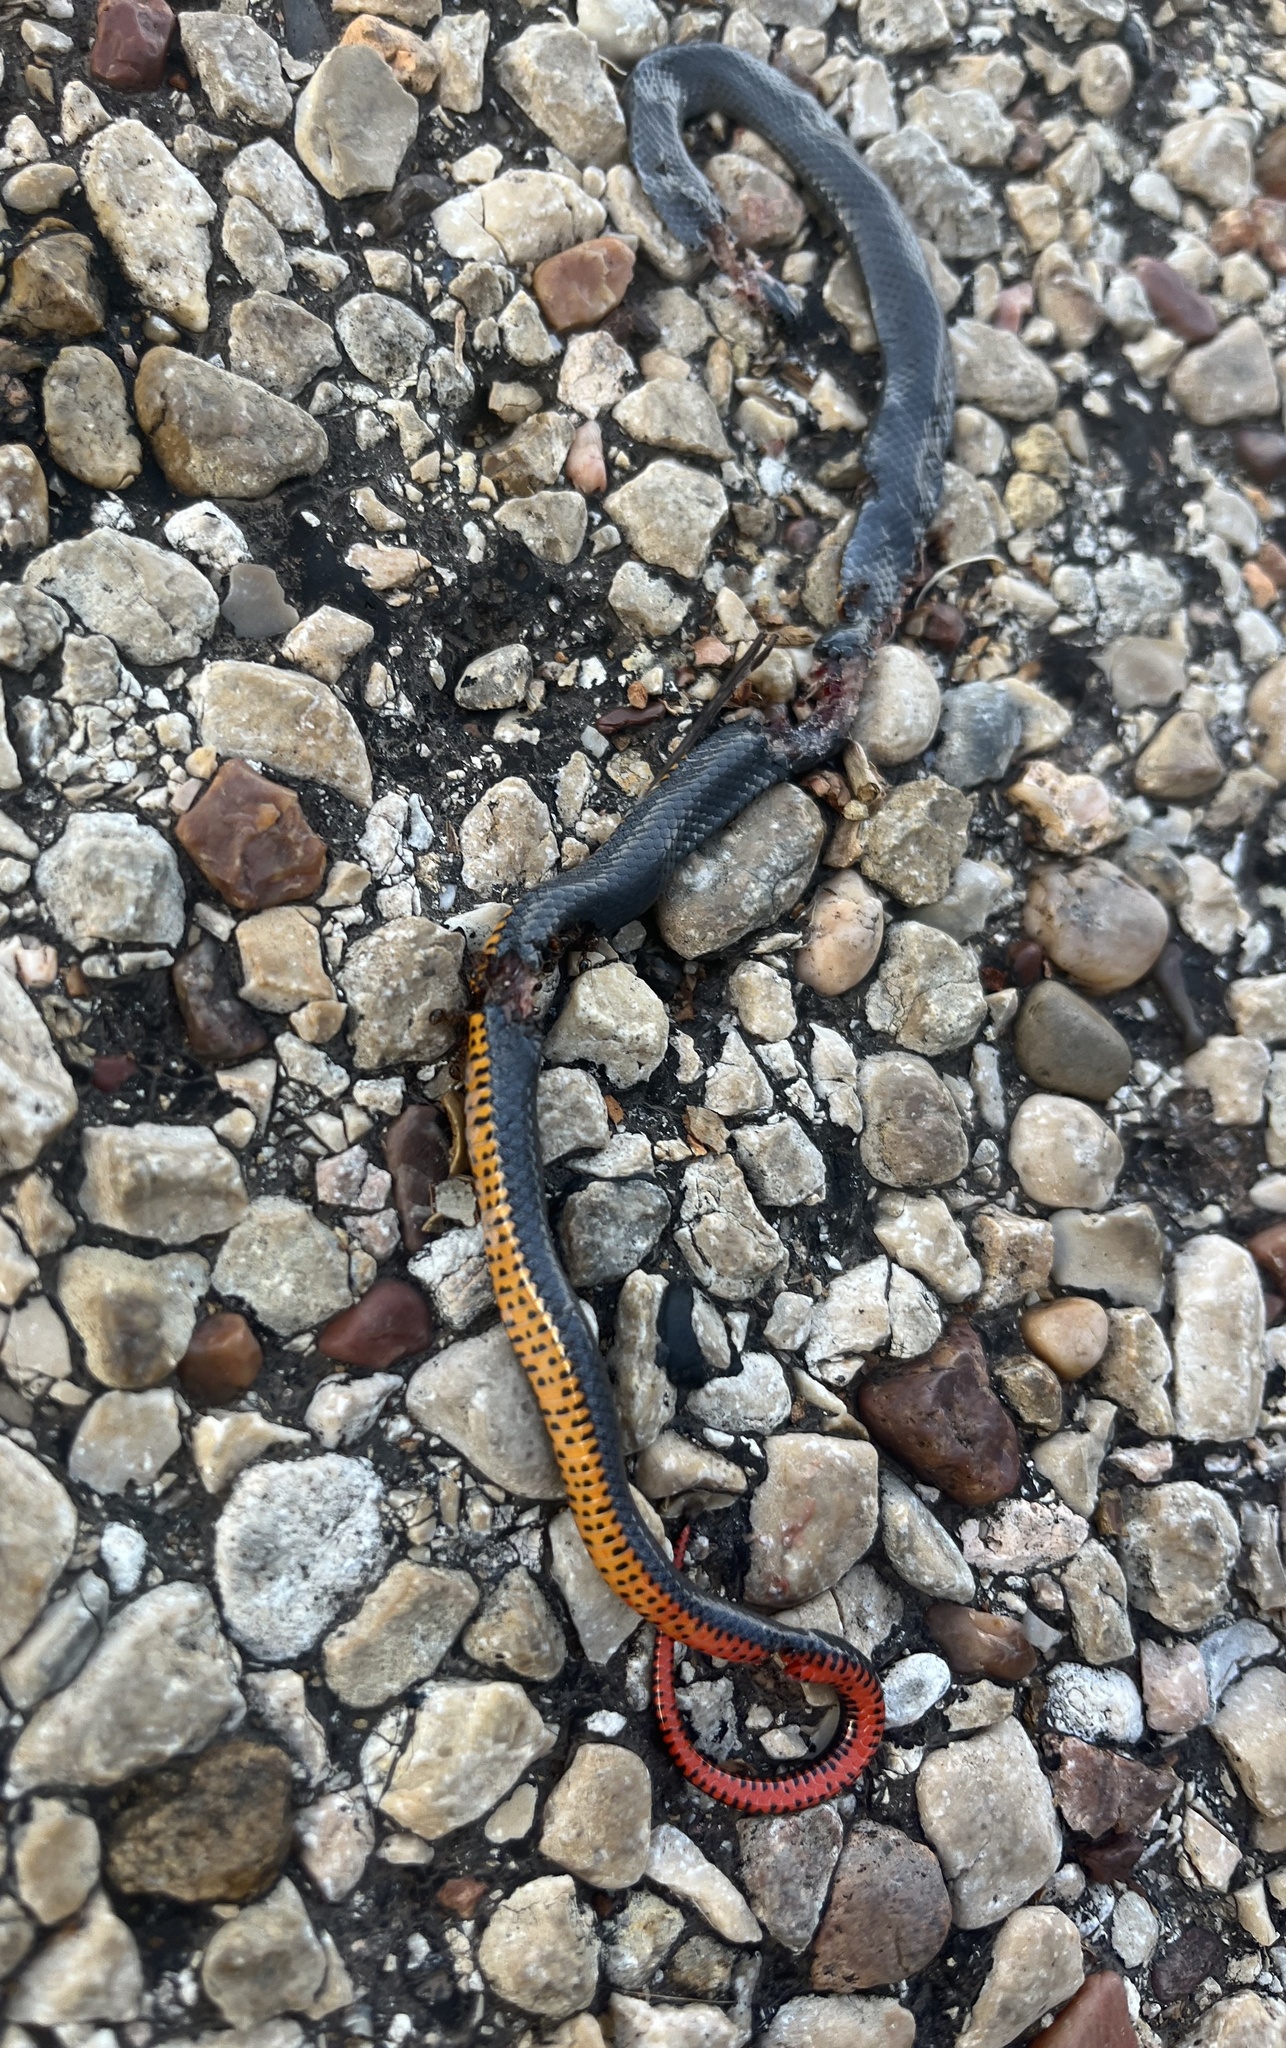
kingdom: Animalia
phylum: Chordata
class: Squamata
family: Colubridae
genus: Diadophis
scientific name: Diadophis punctatus
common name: Ringneck snake
